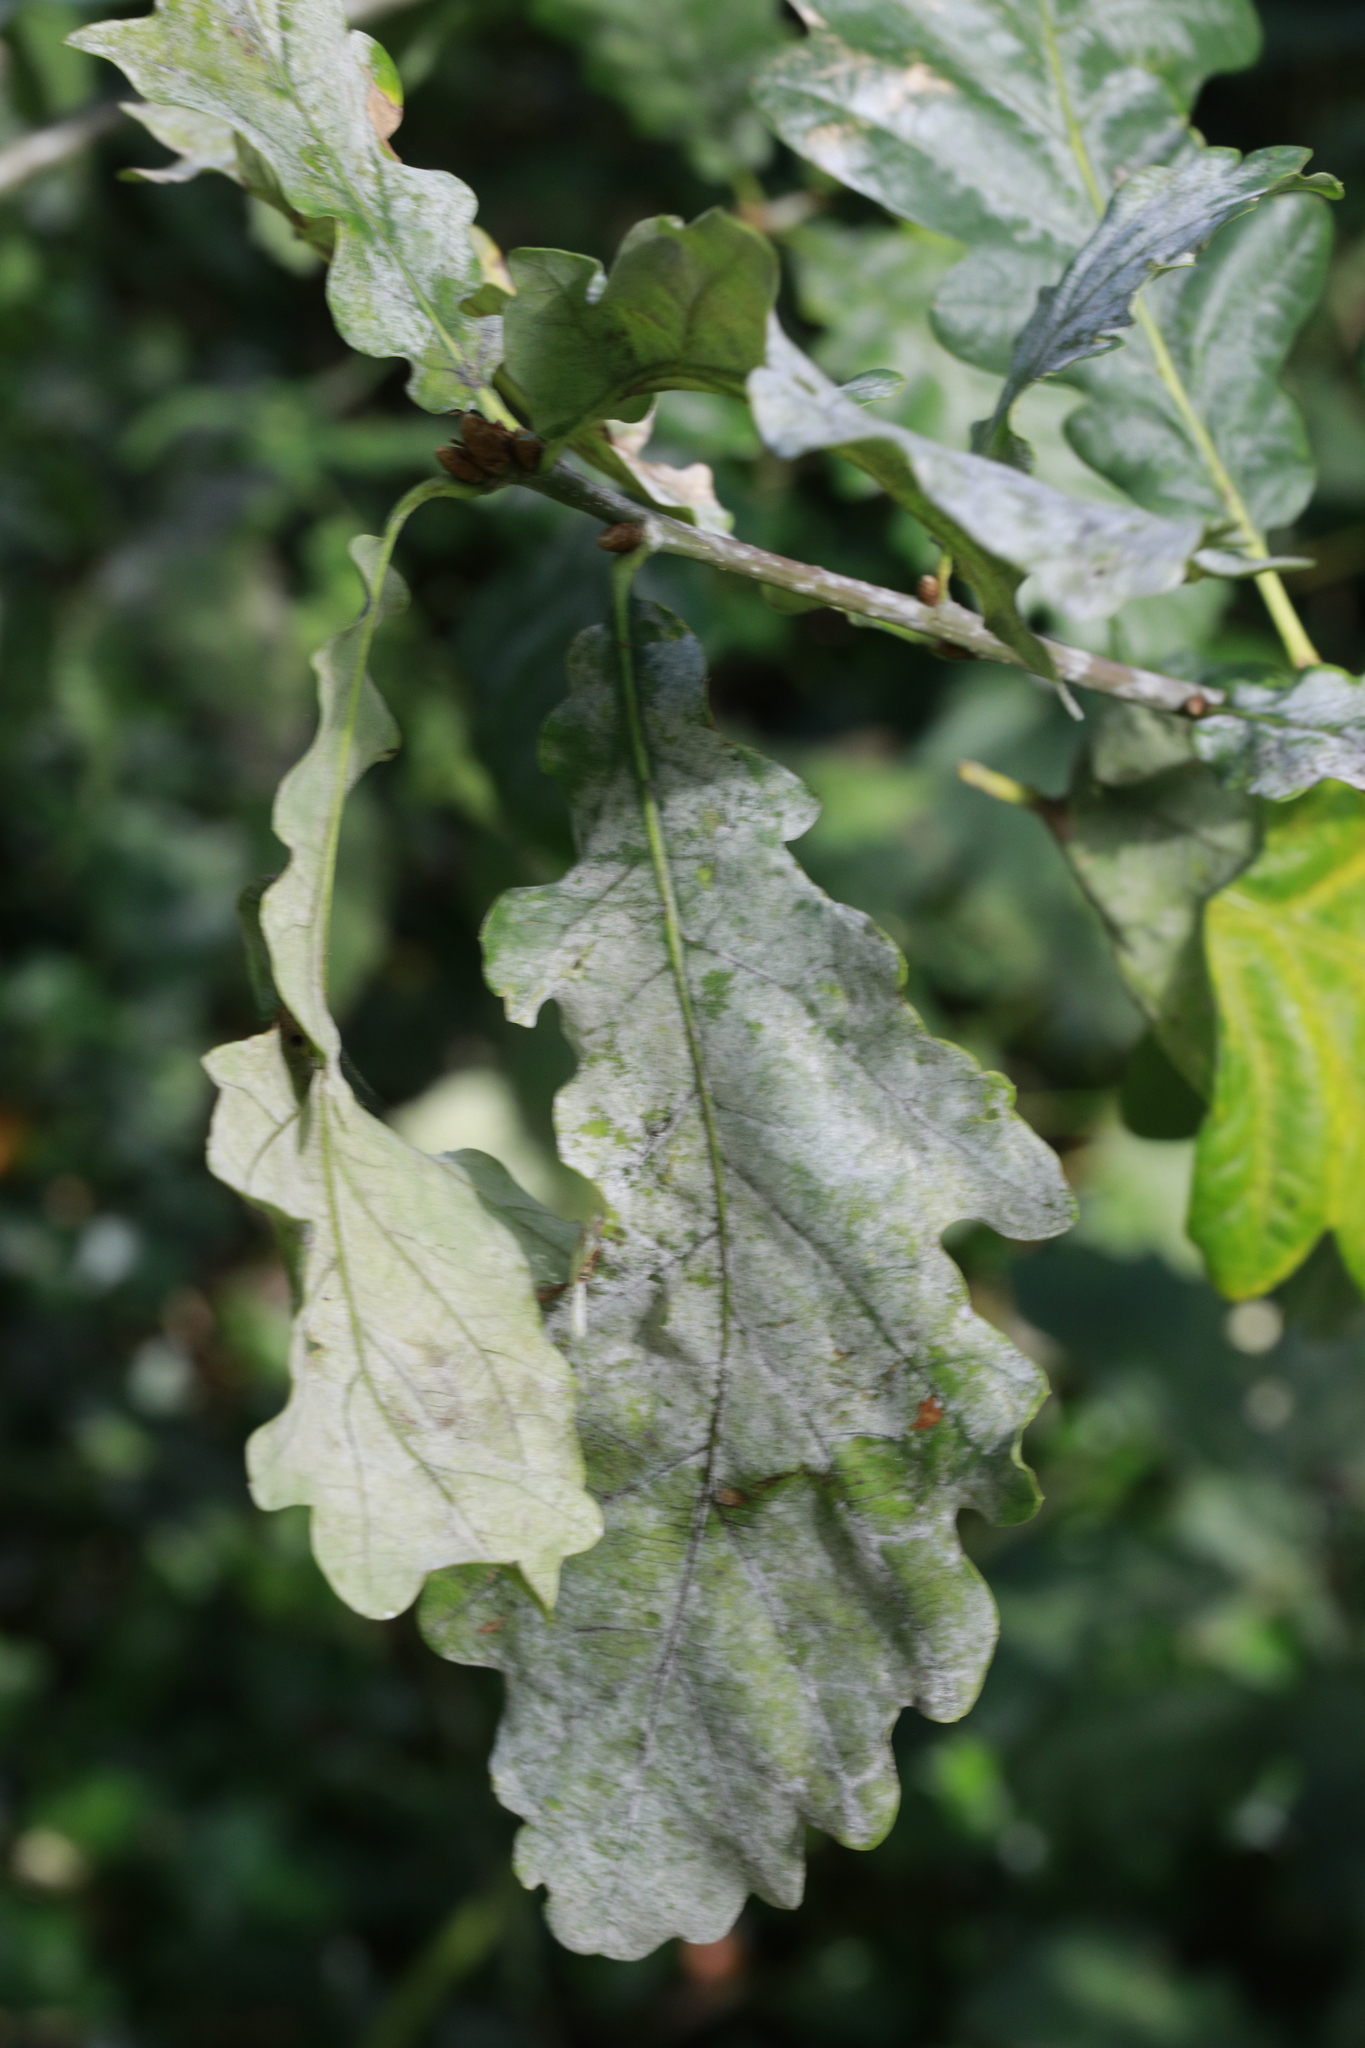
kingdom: Fungi
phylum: Ascomycota
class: Leotiomycetes
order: Helotiales
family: Erysiphaceae
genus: Erysiphe
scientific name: Erysiphe alphitoides
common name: Oak mildew
